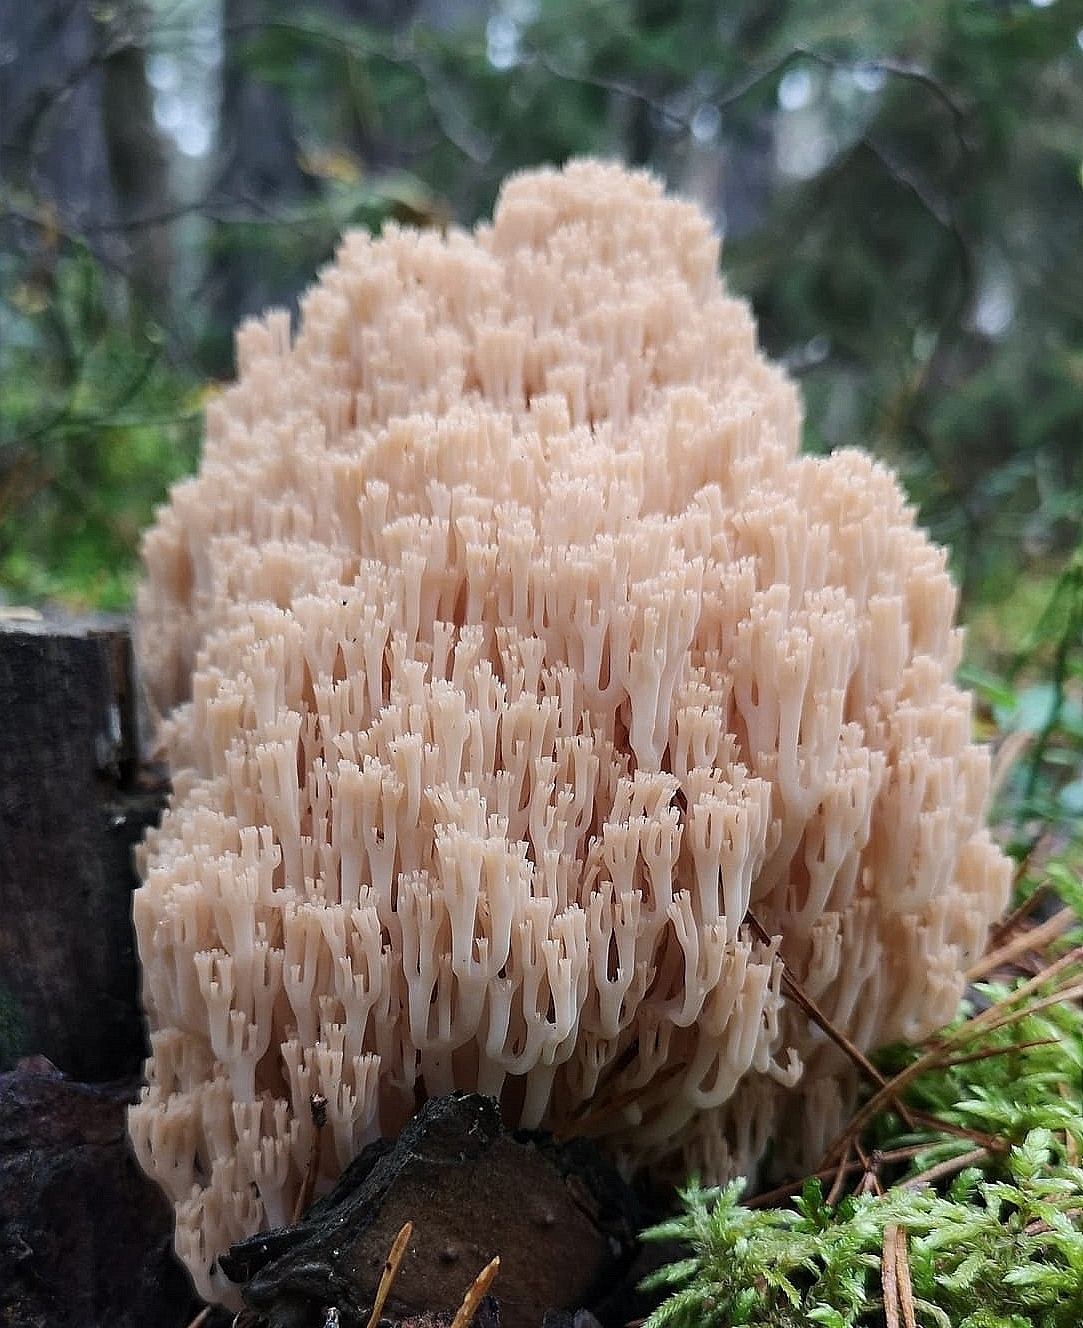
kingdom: Fungi
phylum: Basidiomycota
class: Agaricomycetes
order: Russulales
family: Auriscalpiaceae
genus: Artomyces
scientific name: Artomyces pyxidatus
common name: Crown-tipped coral fungus
